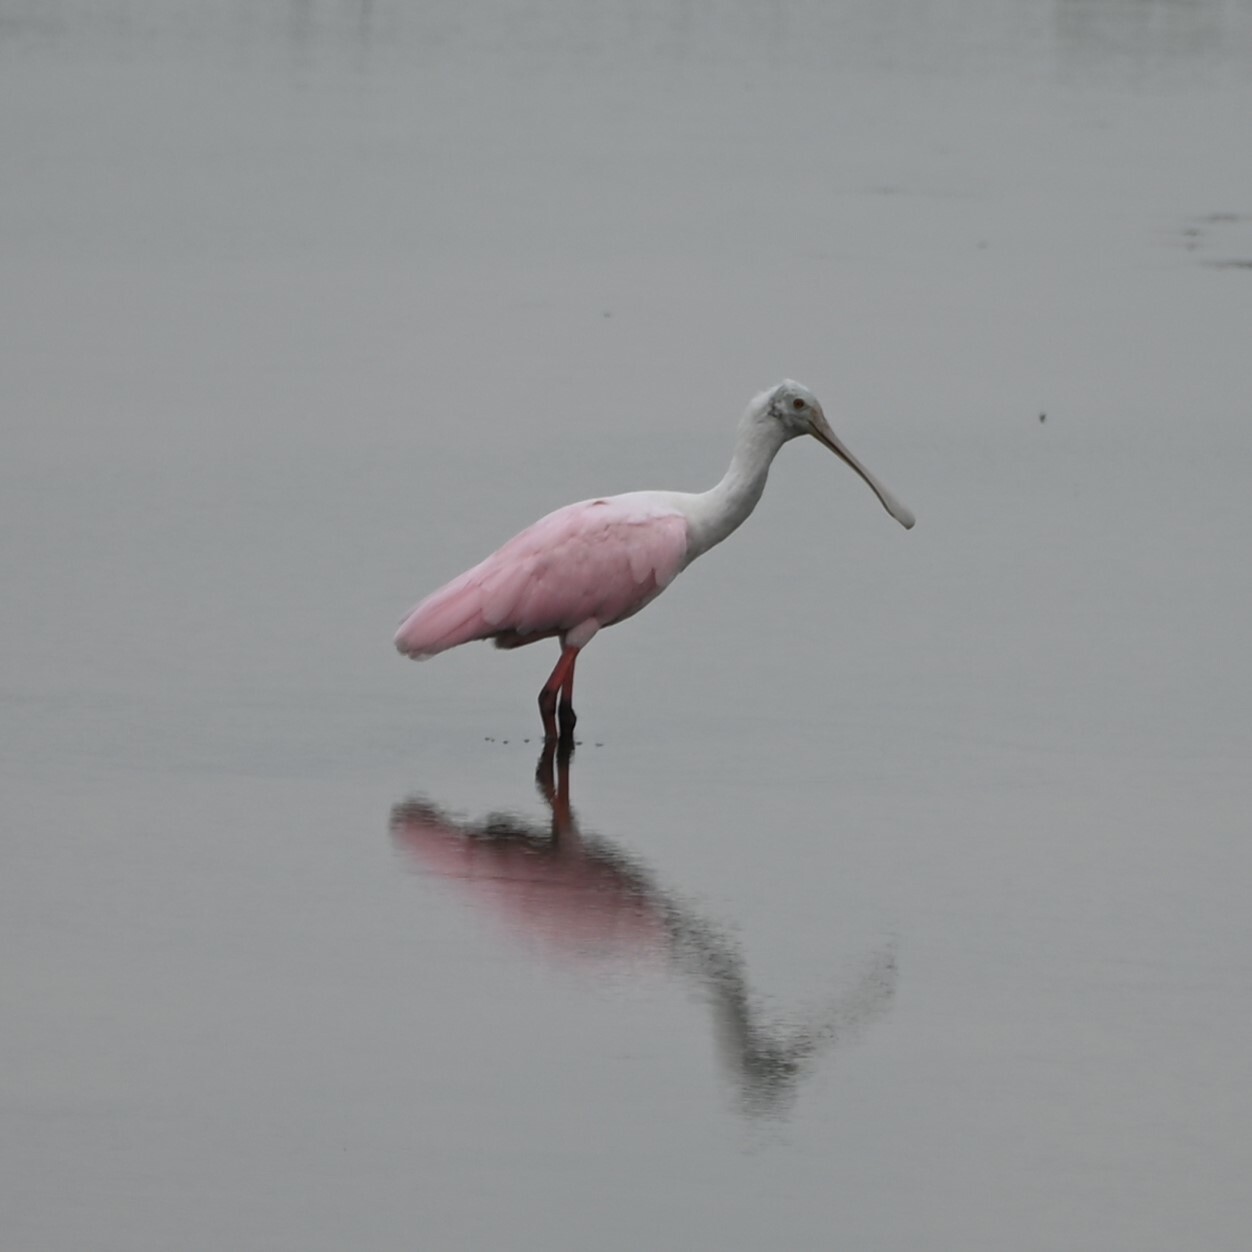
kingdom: Animalia
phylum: Chordata
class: Aves
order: Pelecaniformes
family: Threskiornithidae
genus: Platalea
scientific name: Platalea ajaja
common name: Roseate spoonbill
